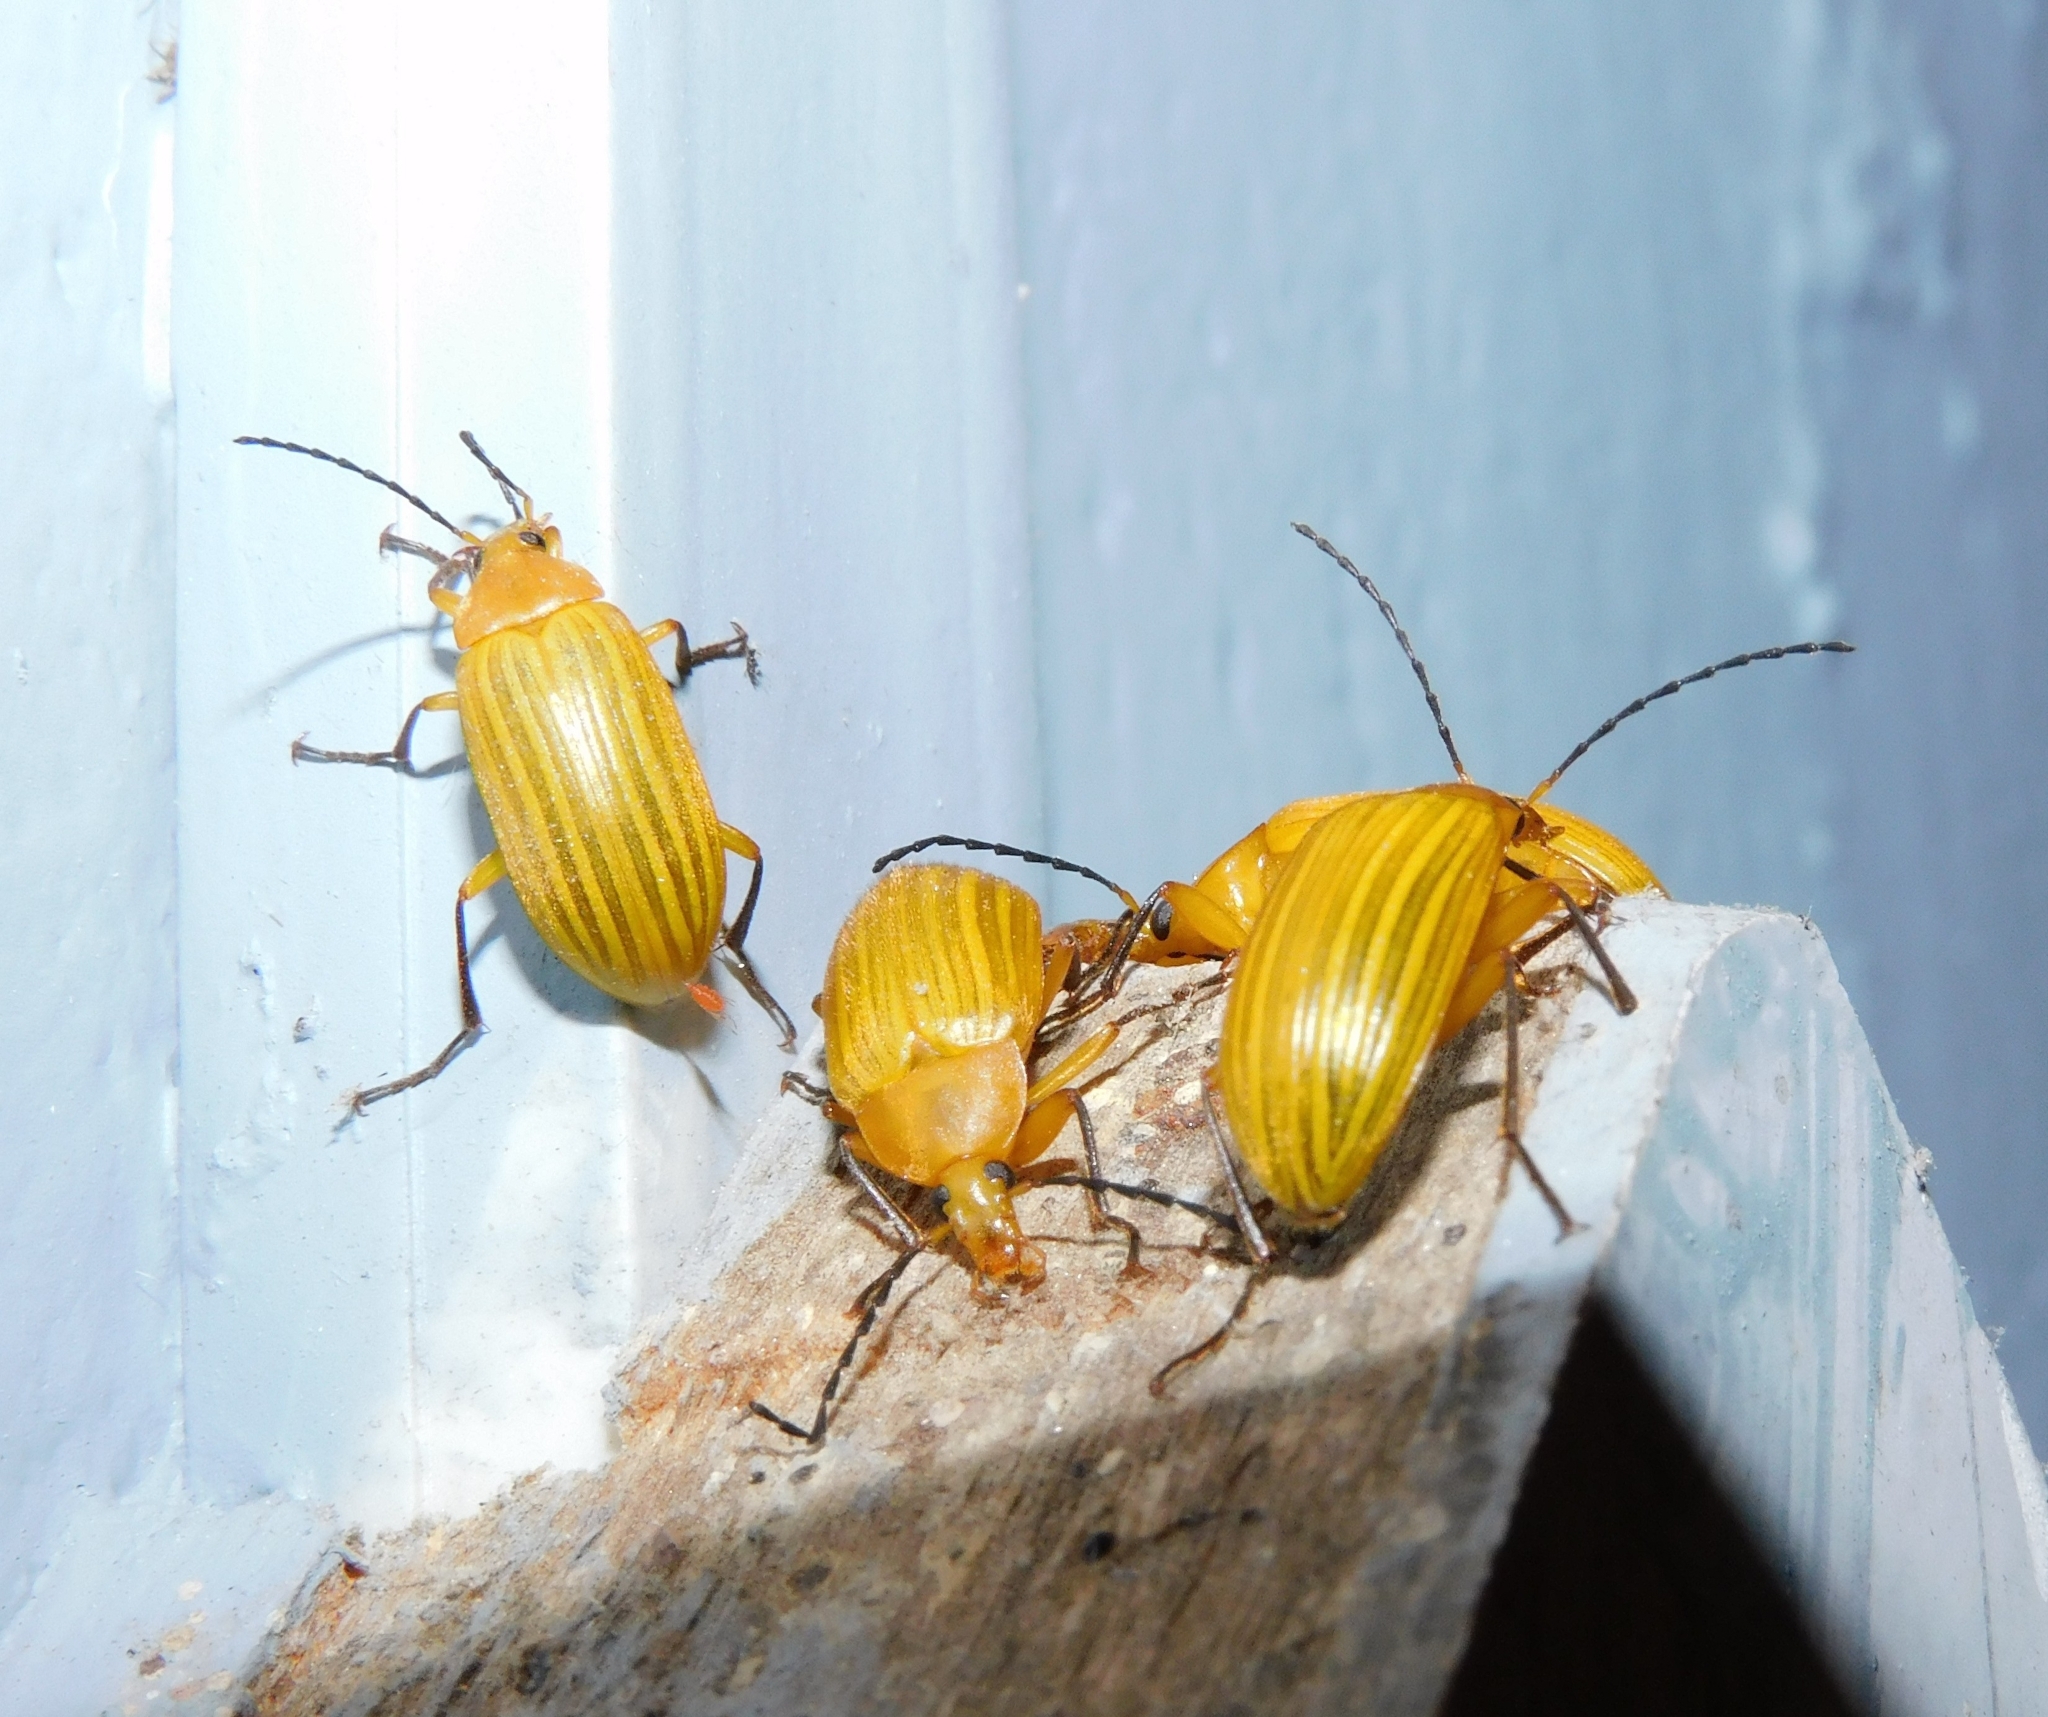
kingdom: Animalia
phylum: Arthropoda
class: Insecta
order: Coleoptera
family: Tenebrionidae
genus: Cistelomorpha
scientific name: Cistelomorpha
